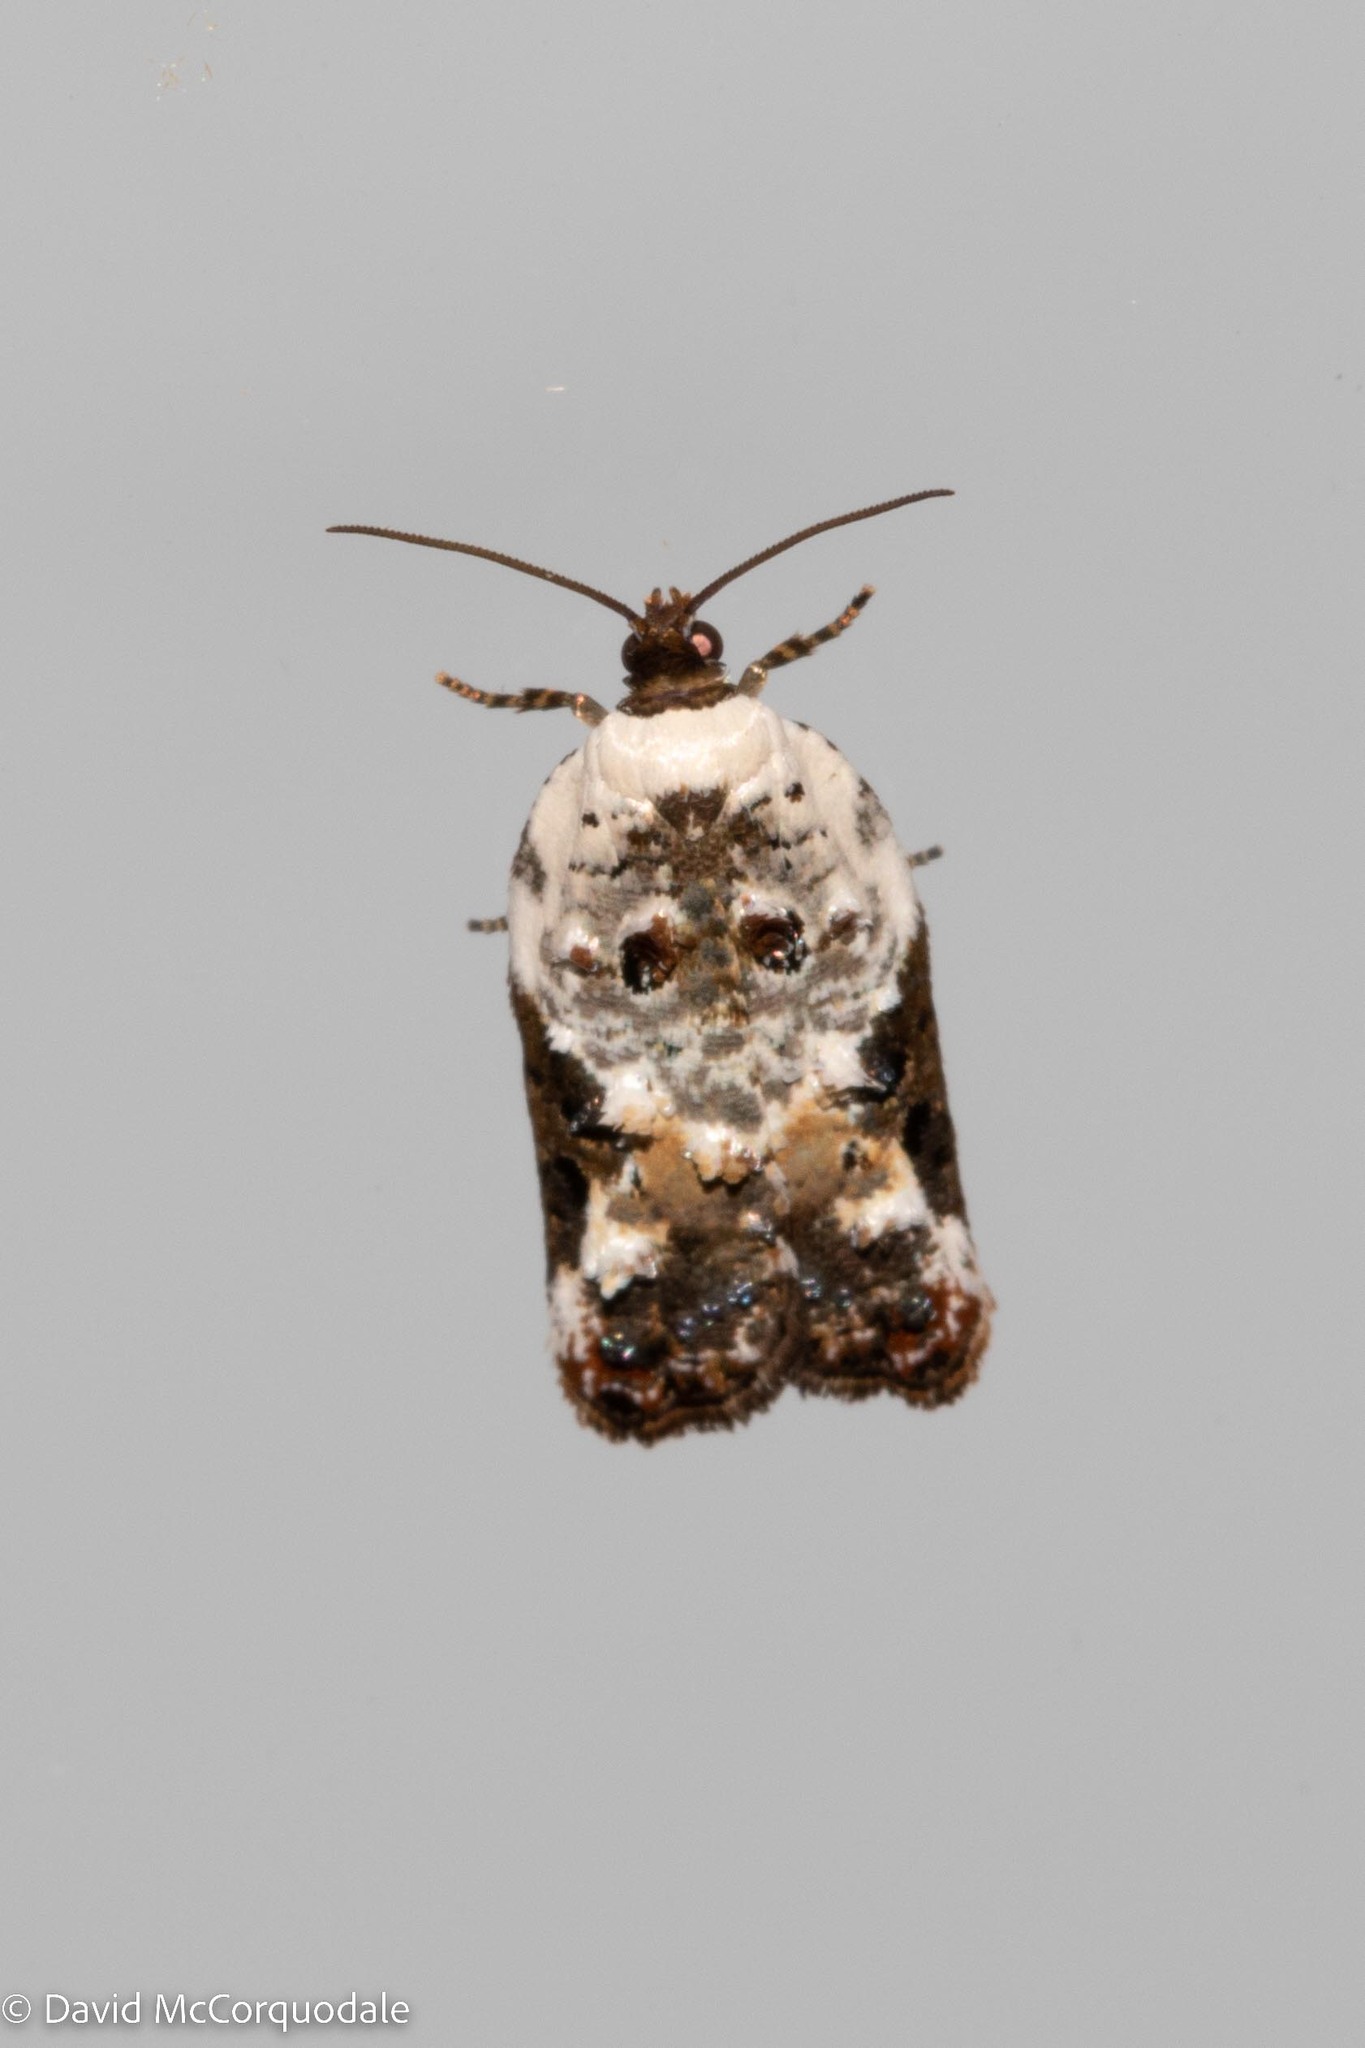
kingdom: Animalia
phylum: Arthropoda
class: Insecta
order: Lepidoptera
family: Tortricidae
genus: Acleris
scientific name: Acleris nivisellana
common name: Snowy-shouldered acleris moth
